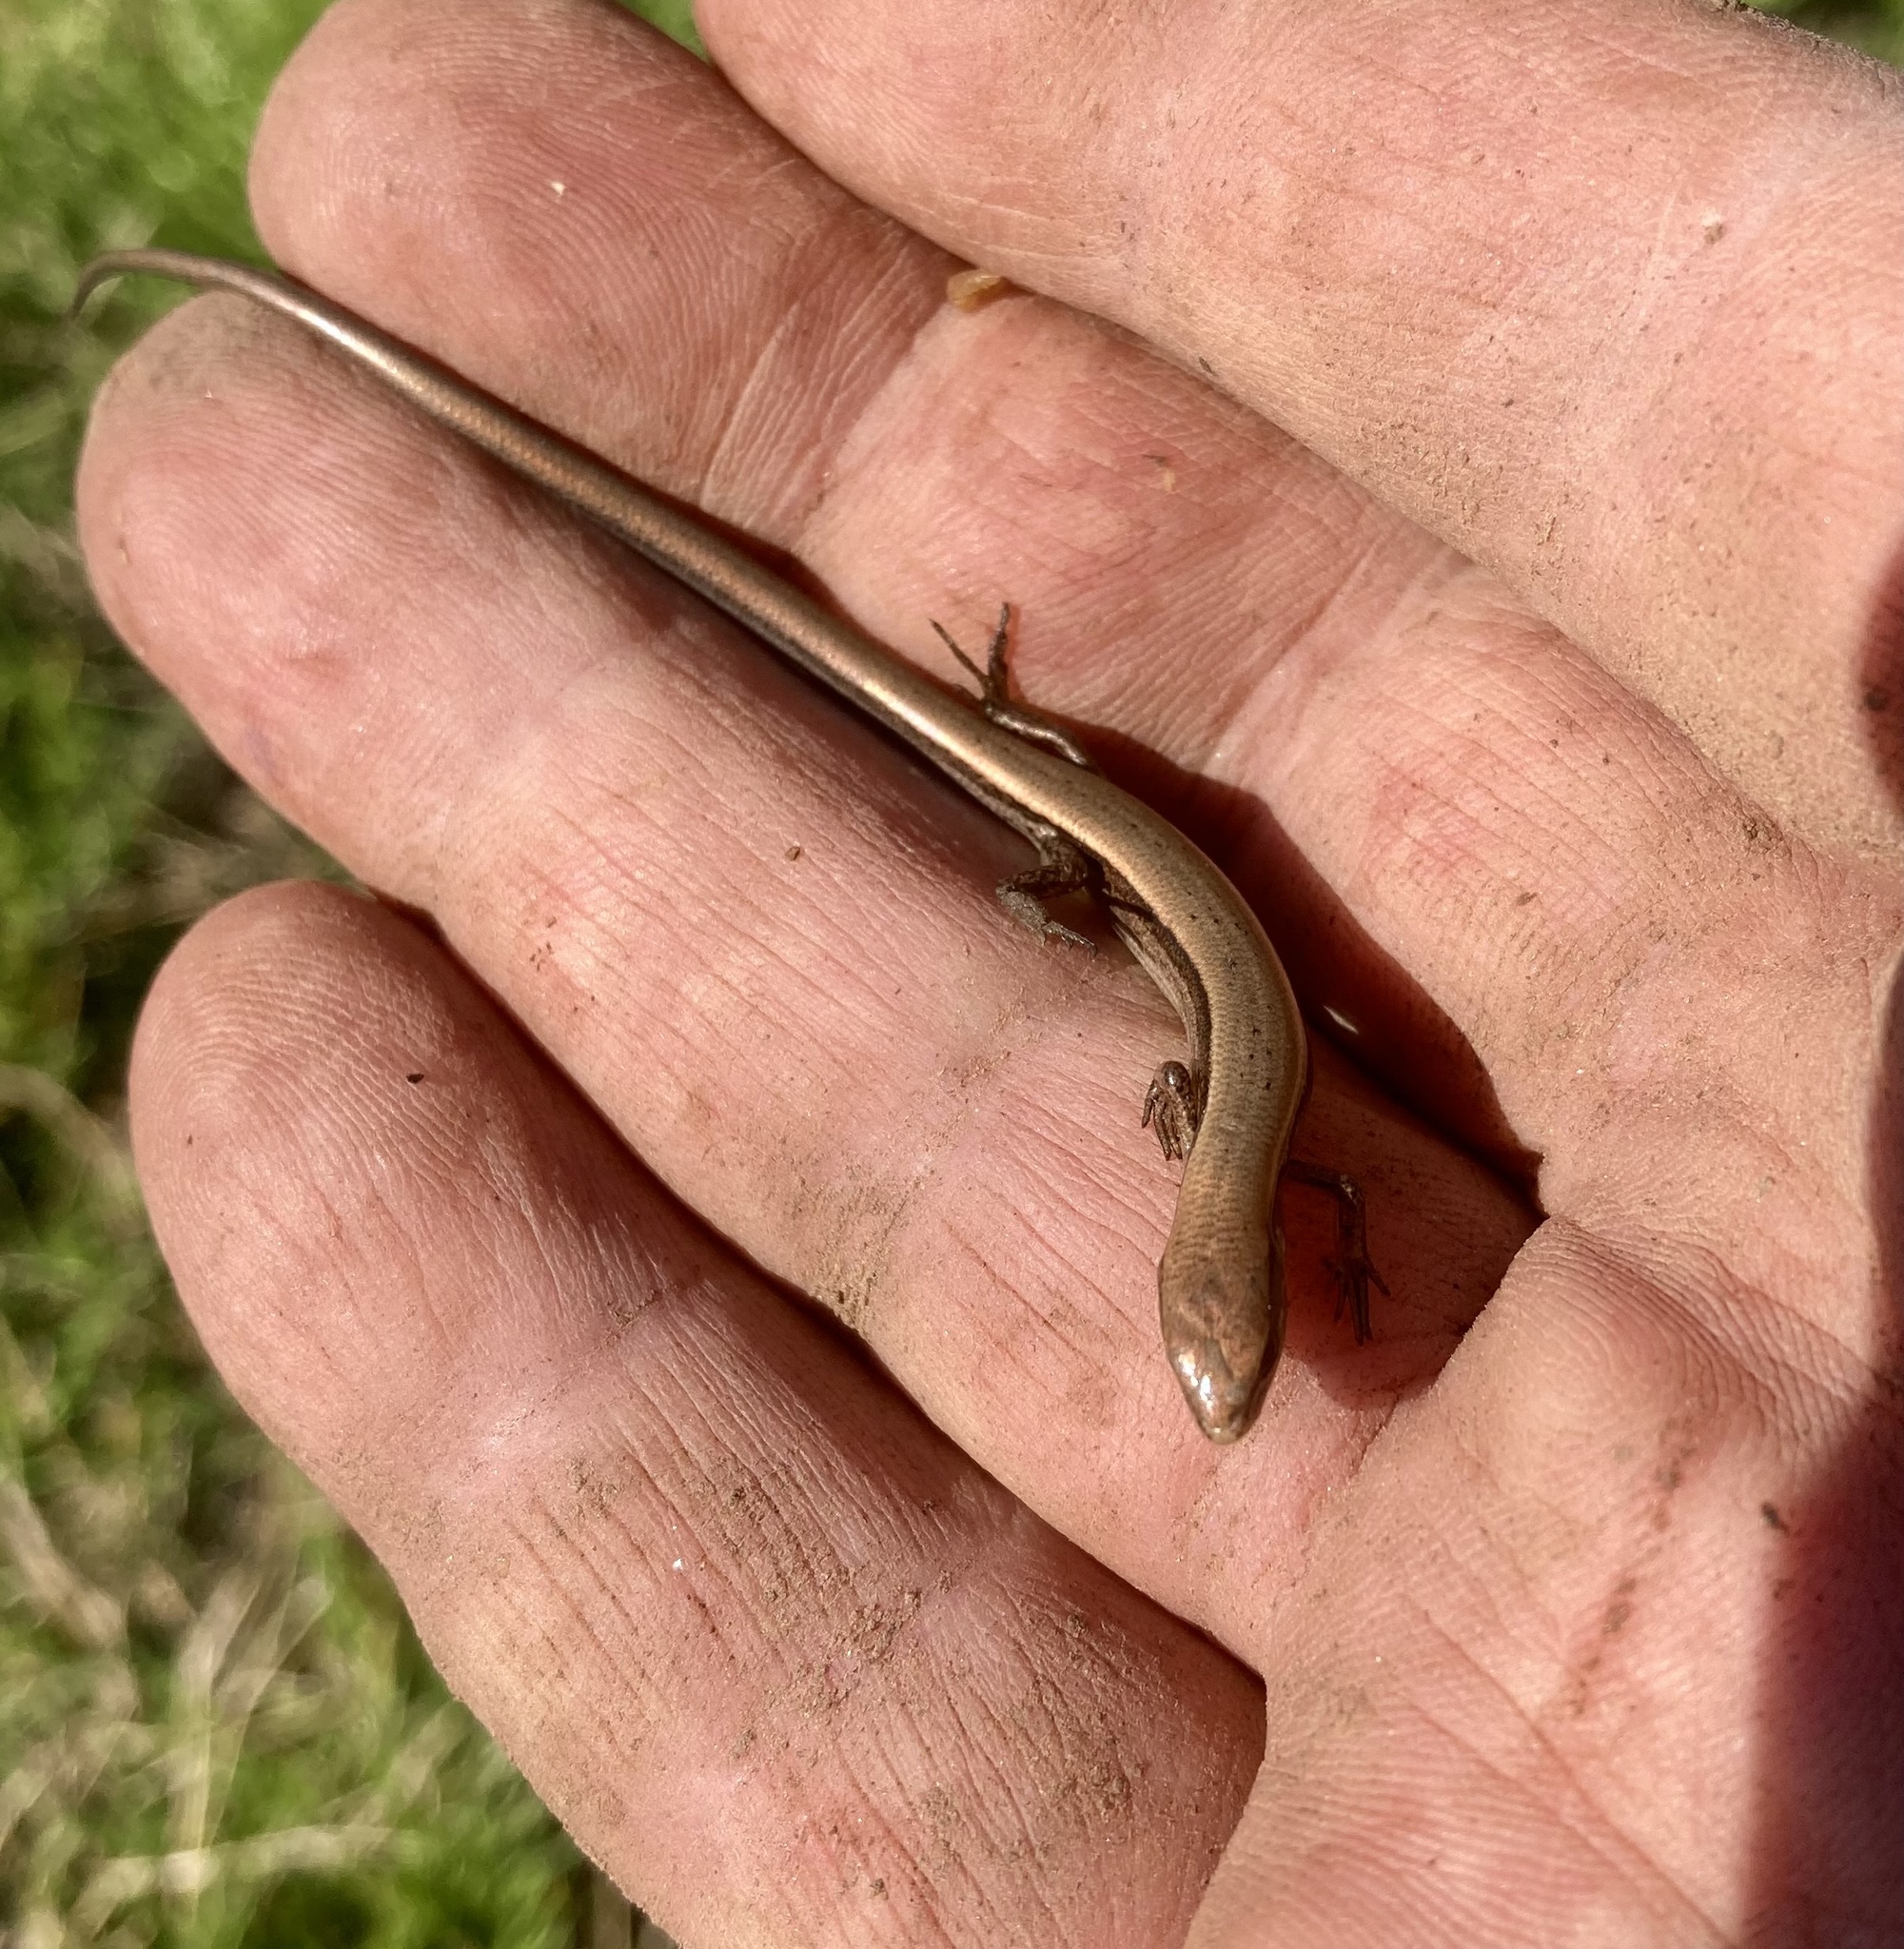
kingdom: Animalia
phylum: Chordata
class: Squamata
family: Scincidae
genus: Scincella
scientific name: Scincella lateralis
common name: Ground skink
